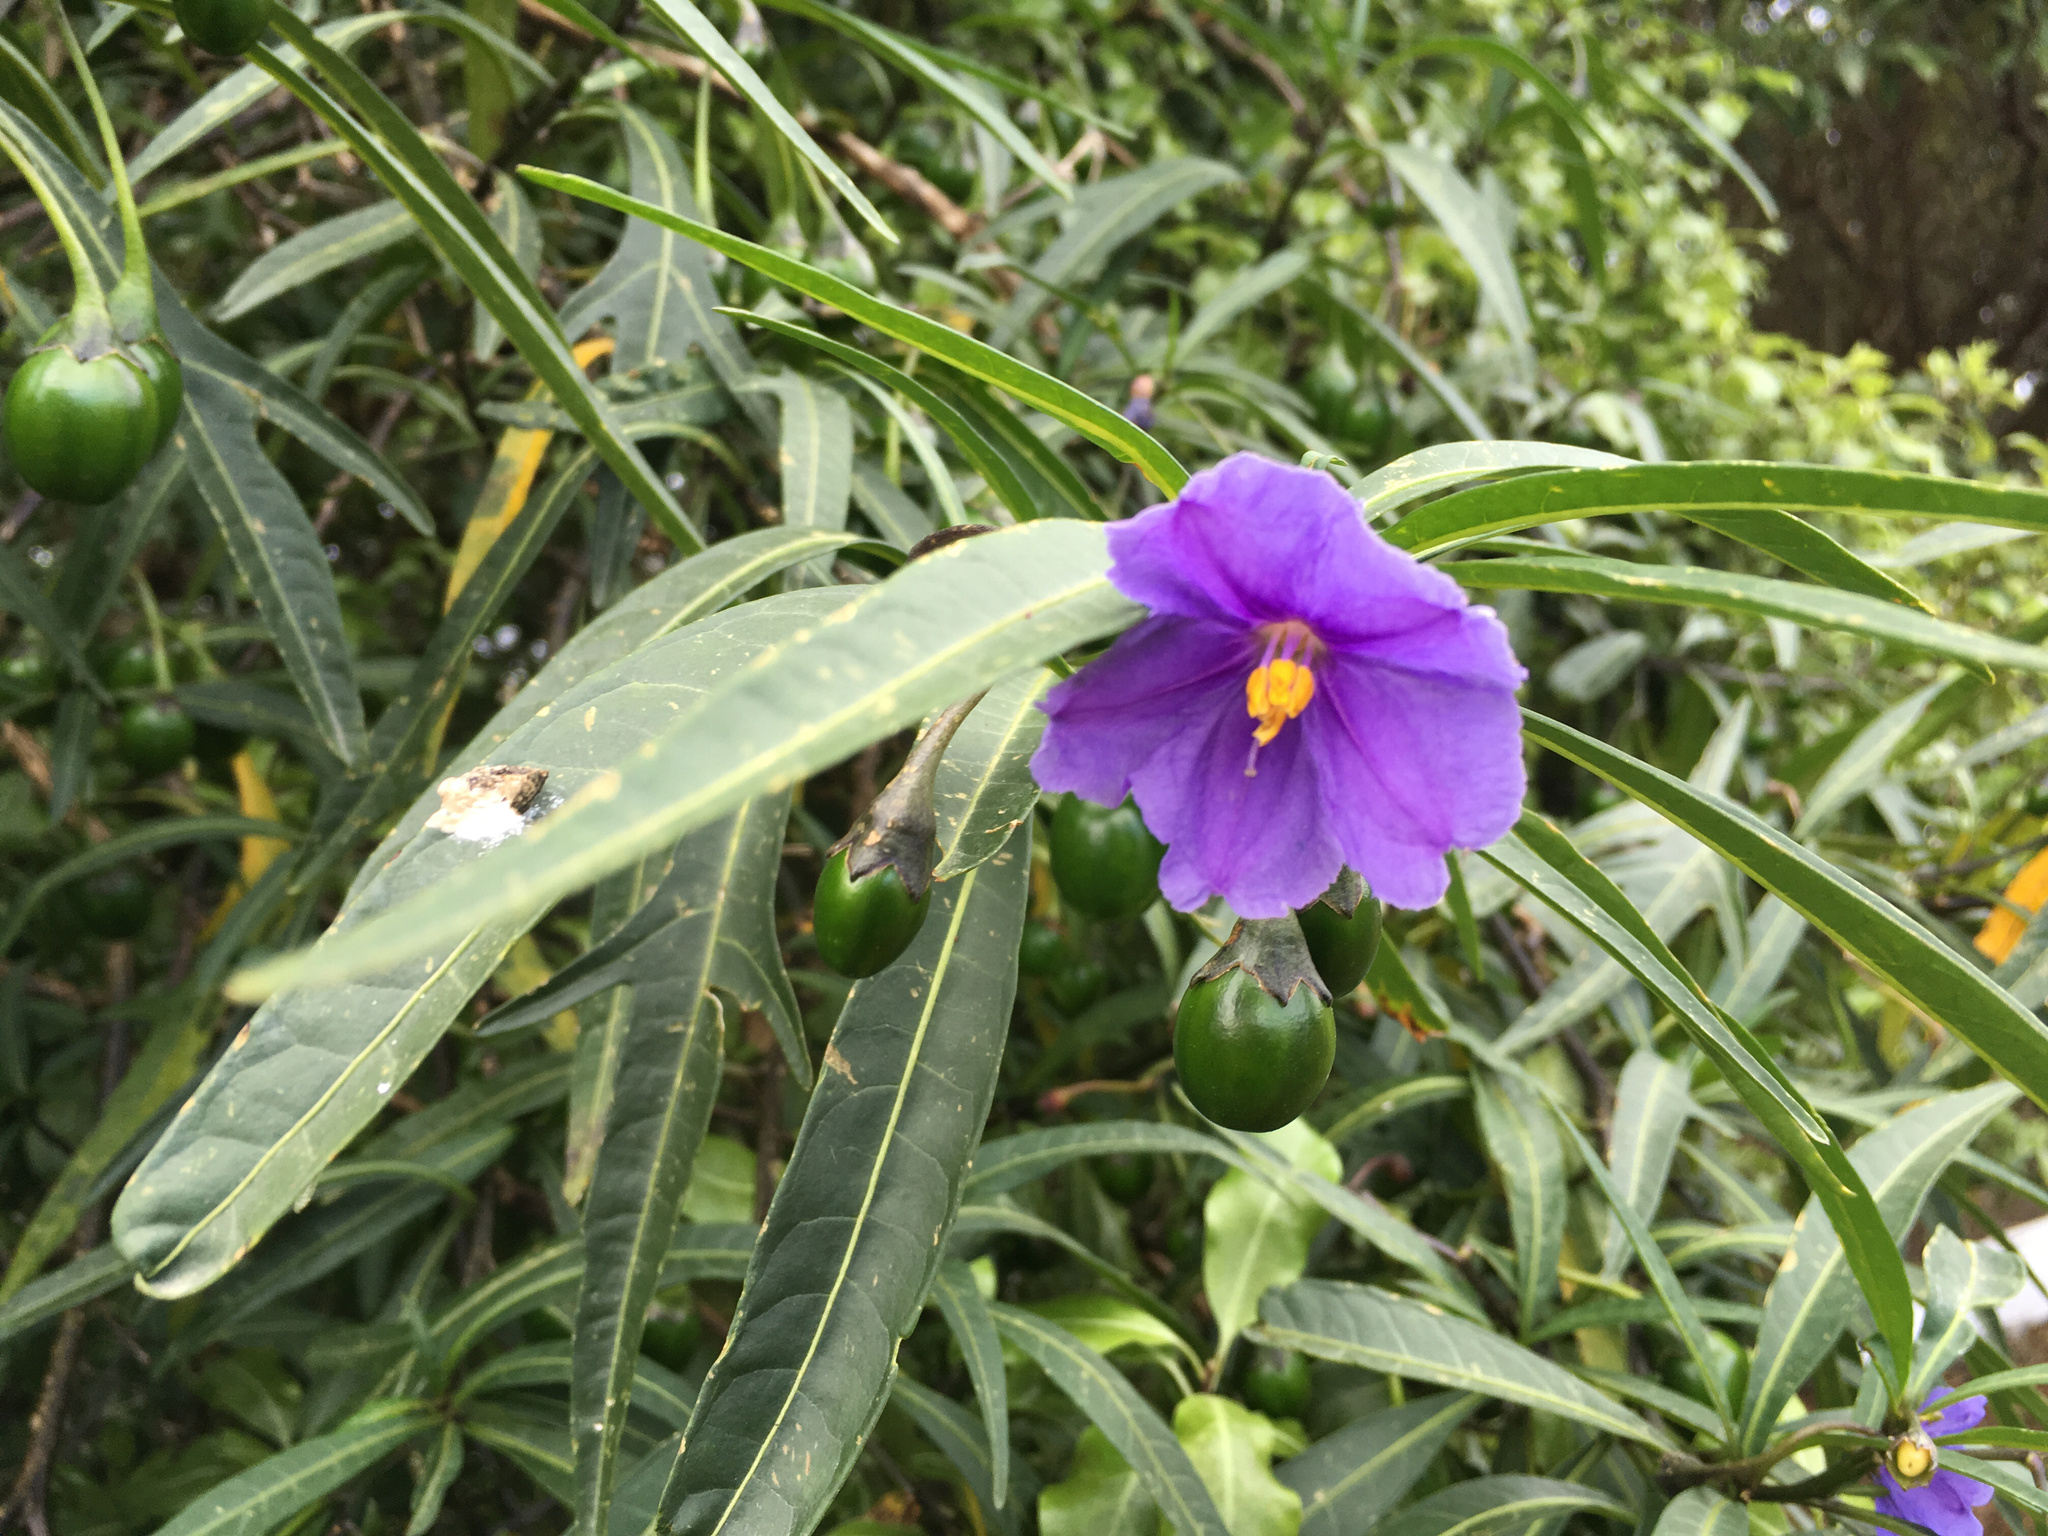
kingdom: Plantae
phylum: Tracheophyta
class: Magnoliopsida
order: Solanales
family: Solanaceae
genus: Solanum
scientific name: Solanum laciniatum
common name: Kangaroo-apple
